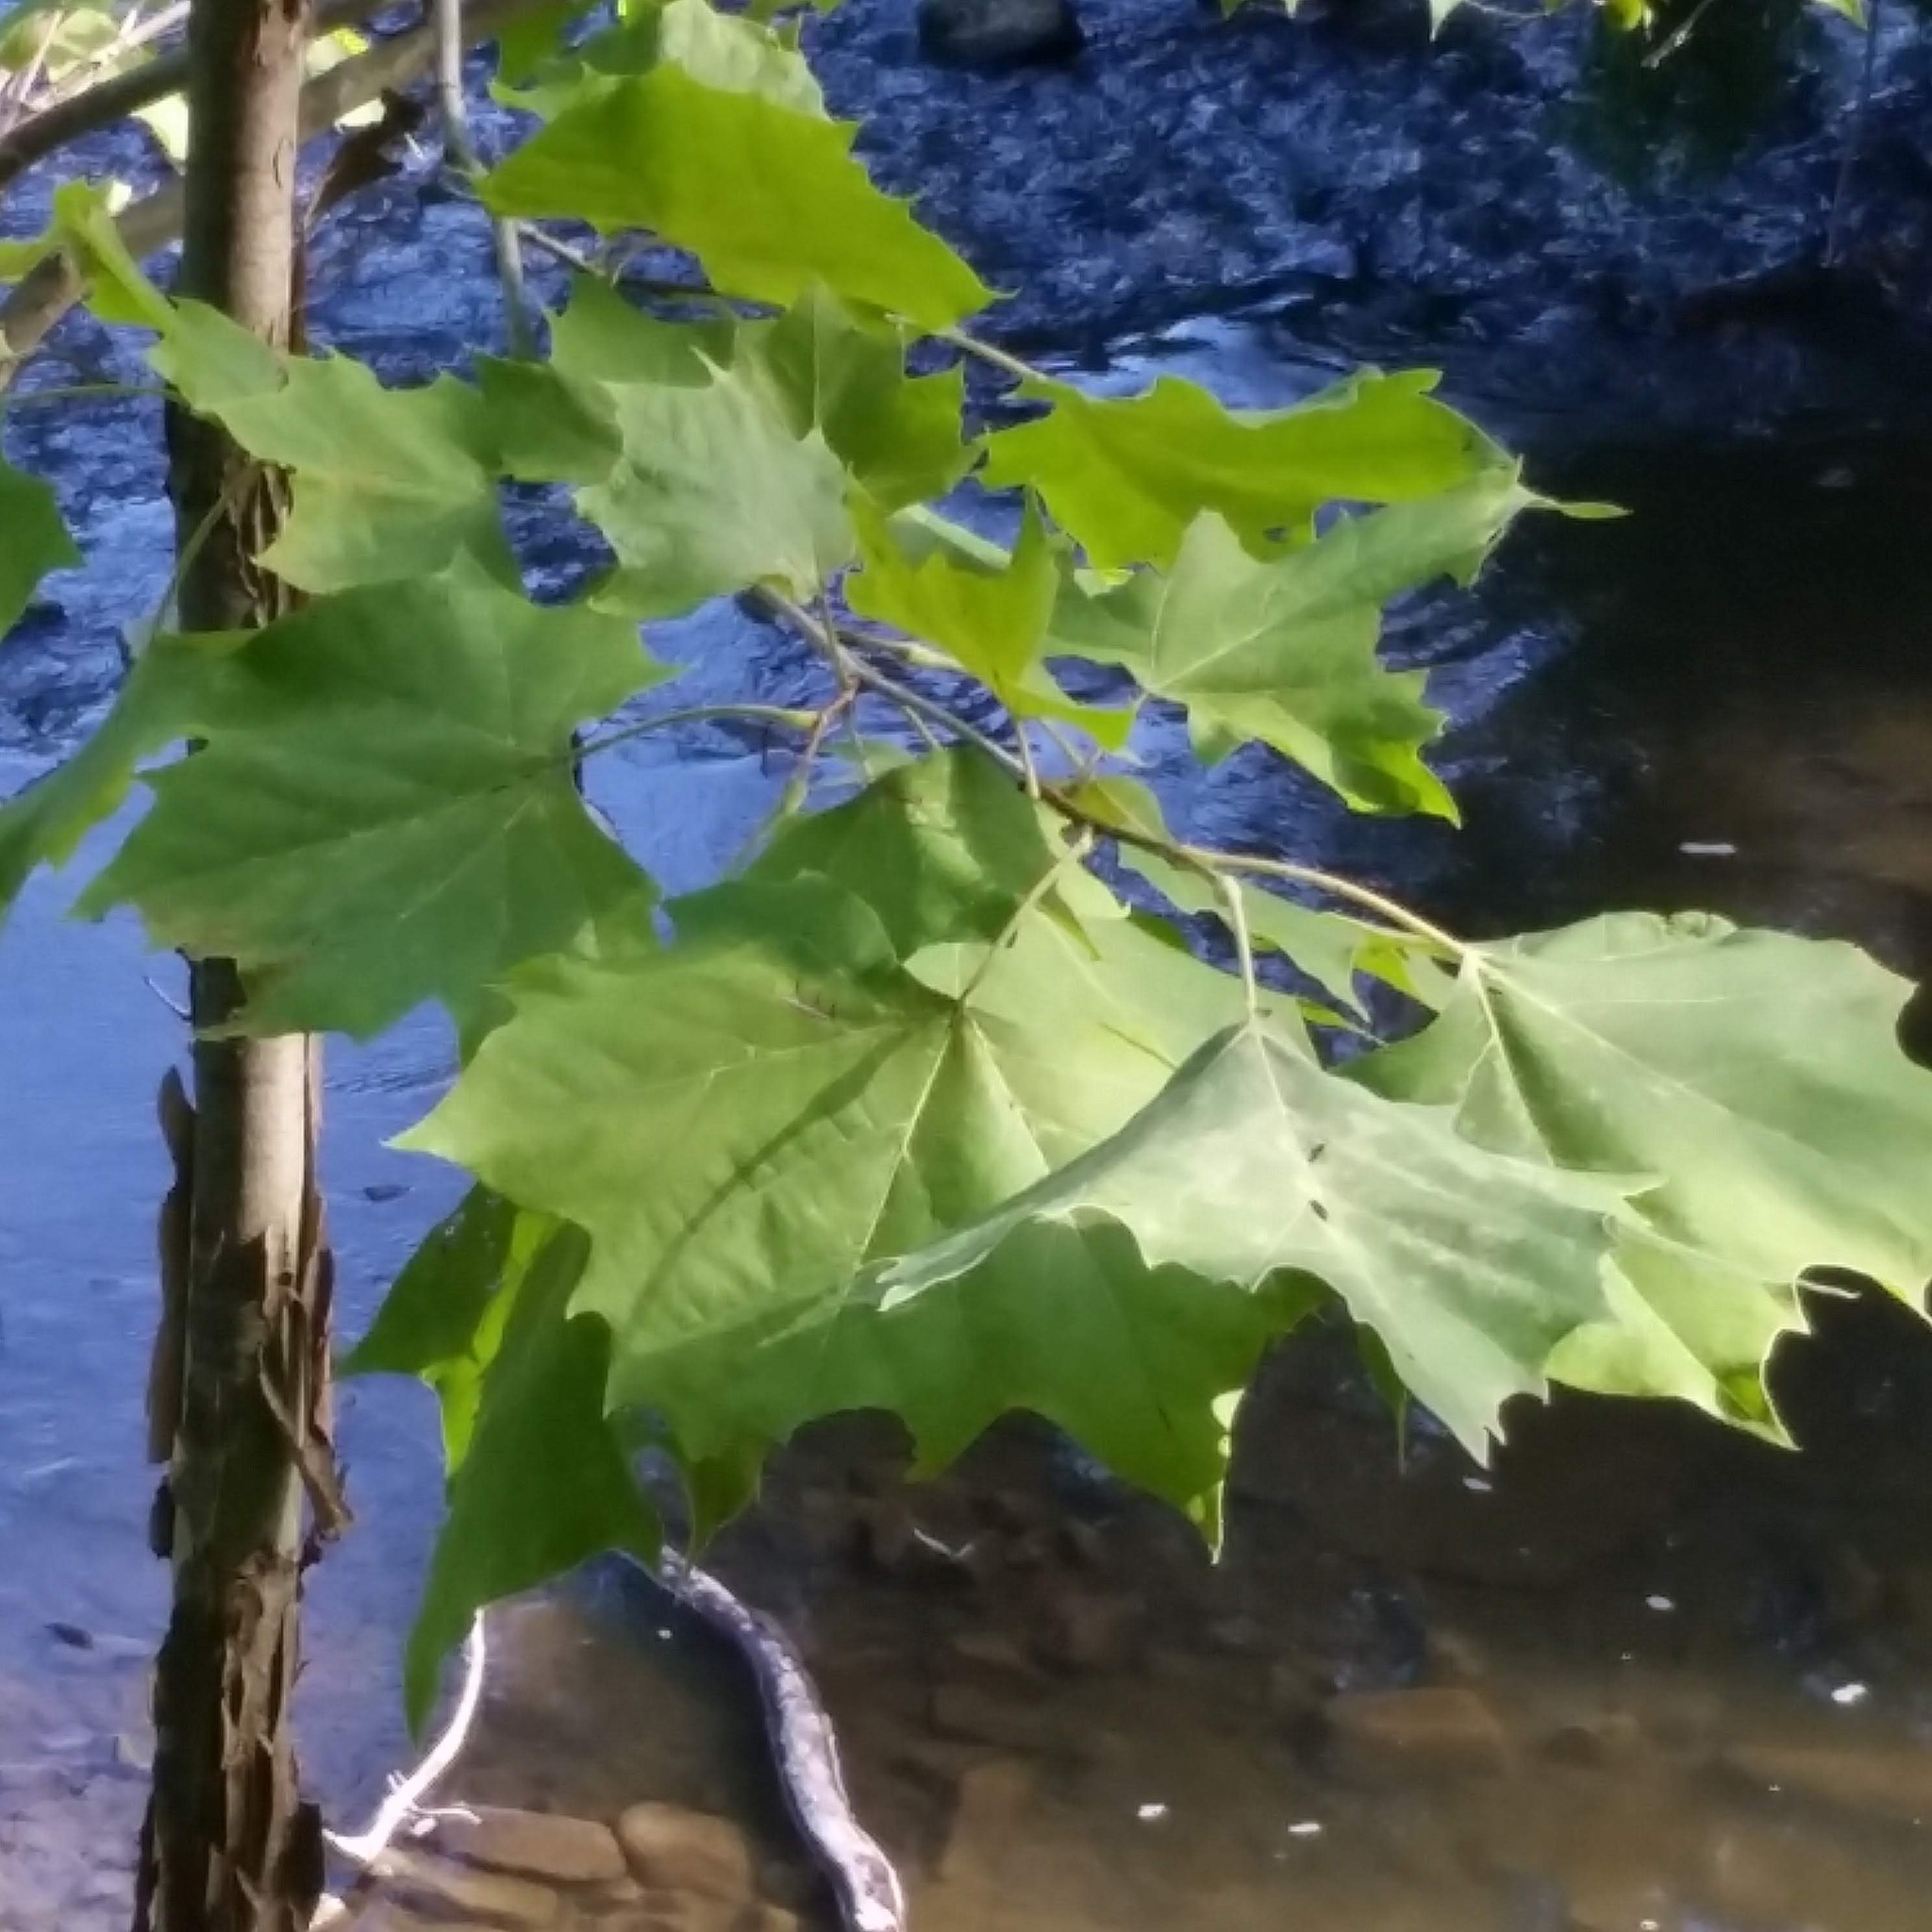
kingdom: Plantae
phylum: Tracheophyta
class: Magnoliopsida
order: Proteales
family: Platanaceae
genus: Platanus
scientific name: Platanus occidentalis
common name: American sycamore
